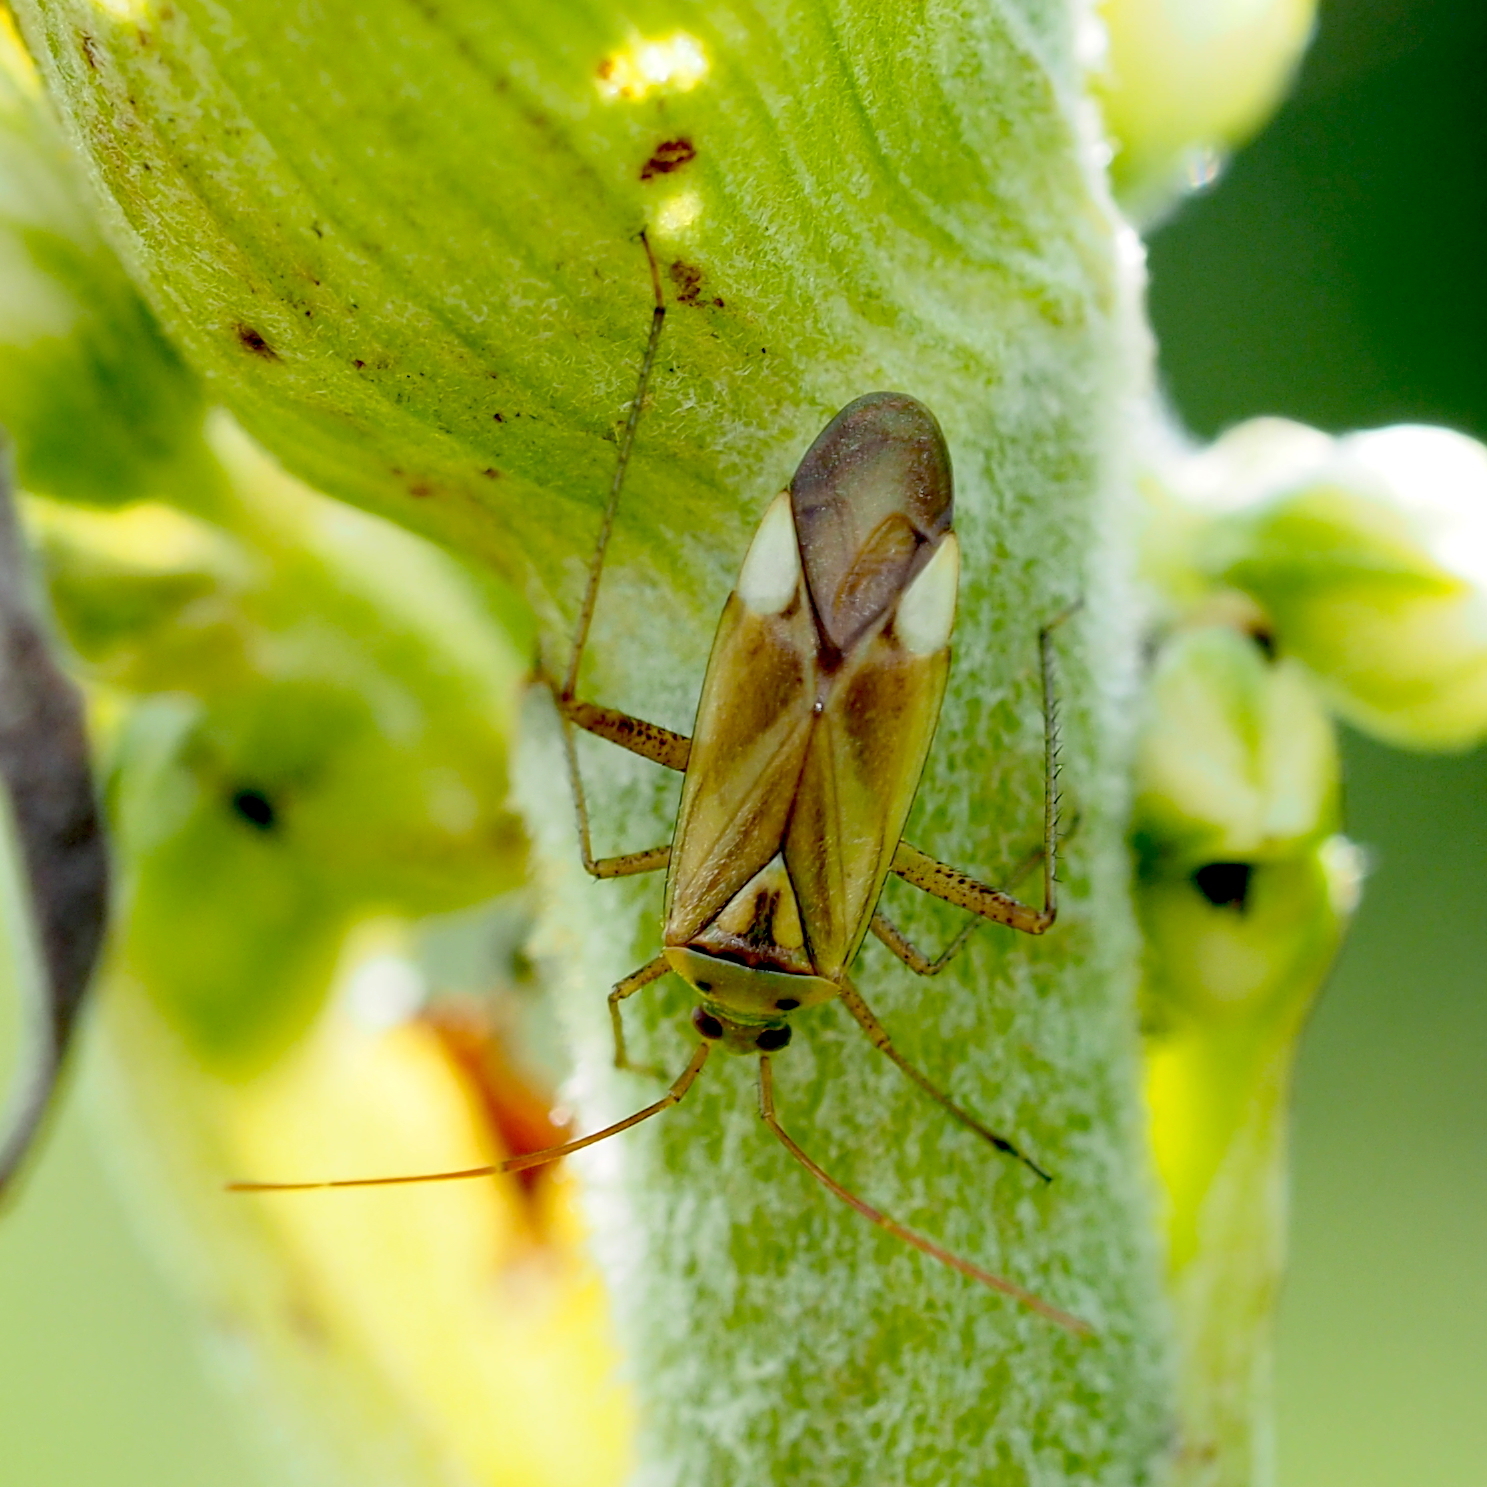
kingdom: Animalia
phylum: Arthropoda
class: Insecta
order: Hemiptera
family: Miridae
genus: Adelphocoris
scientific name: Adelphocoris lineolatus
